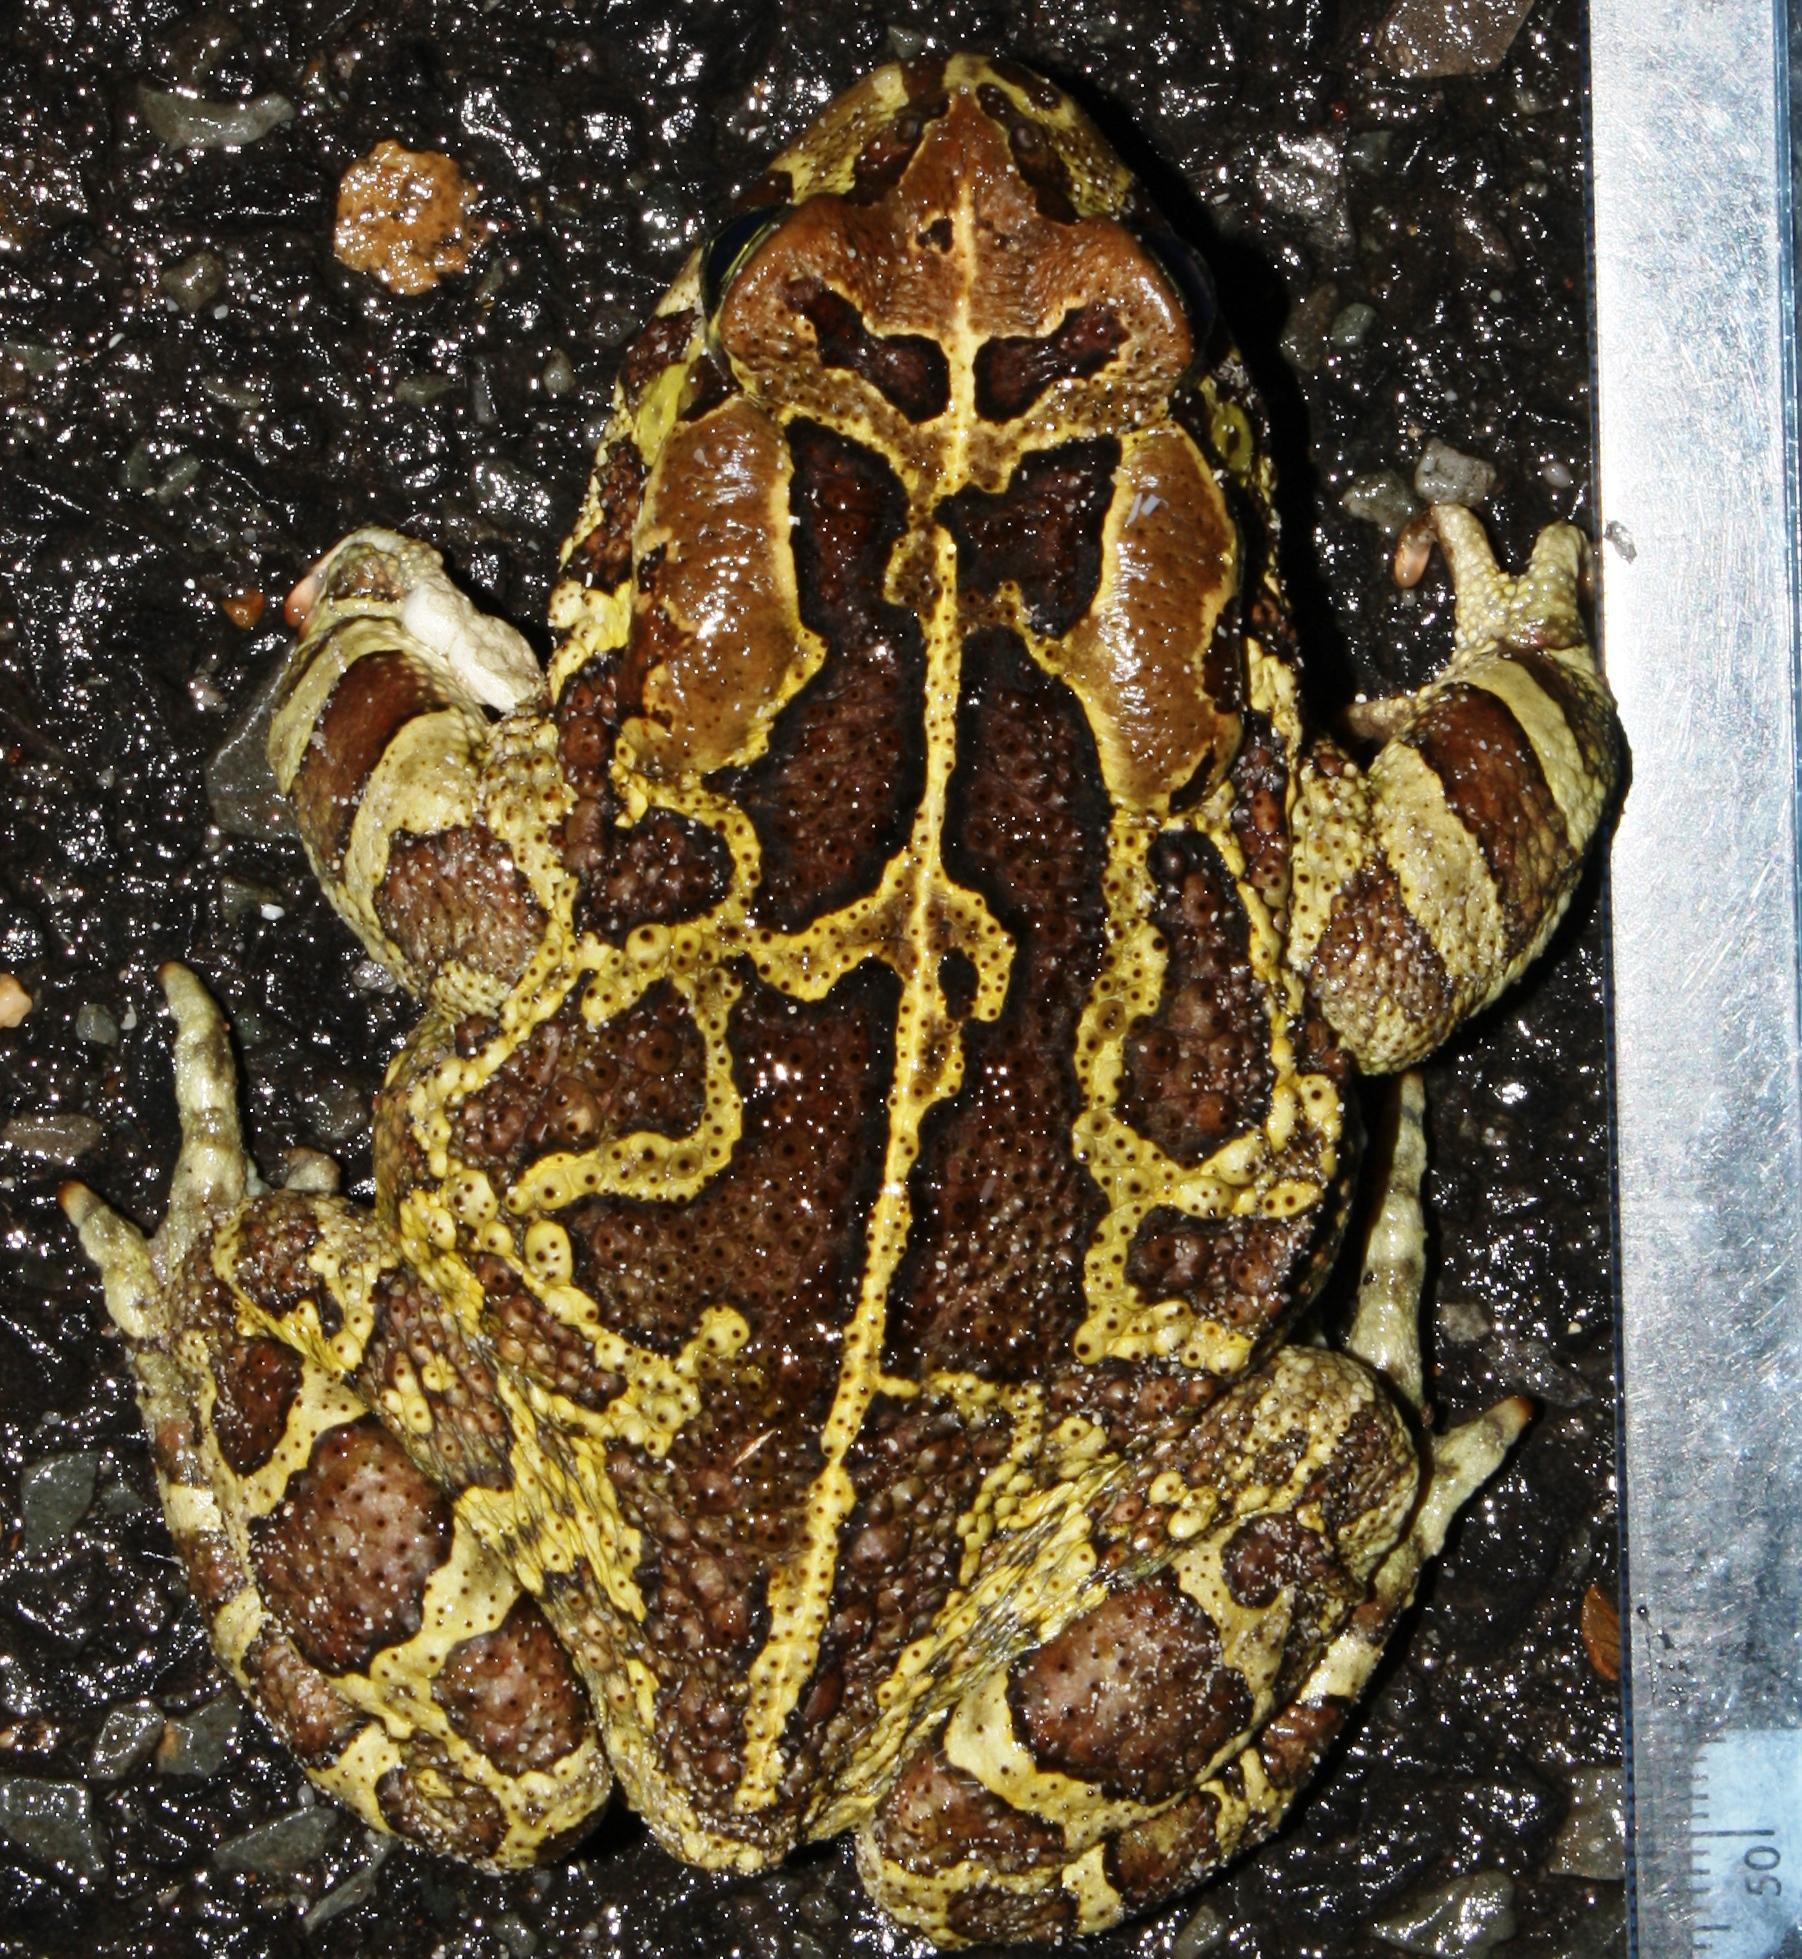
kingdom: Animalia
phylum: Chordata
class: Amphibia
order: Anura
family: Bufonidae
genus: Sclerophrys
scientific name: Sclerophrys pantherina
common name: Panther toad
